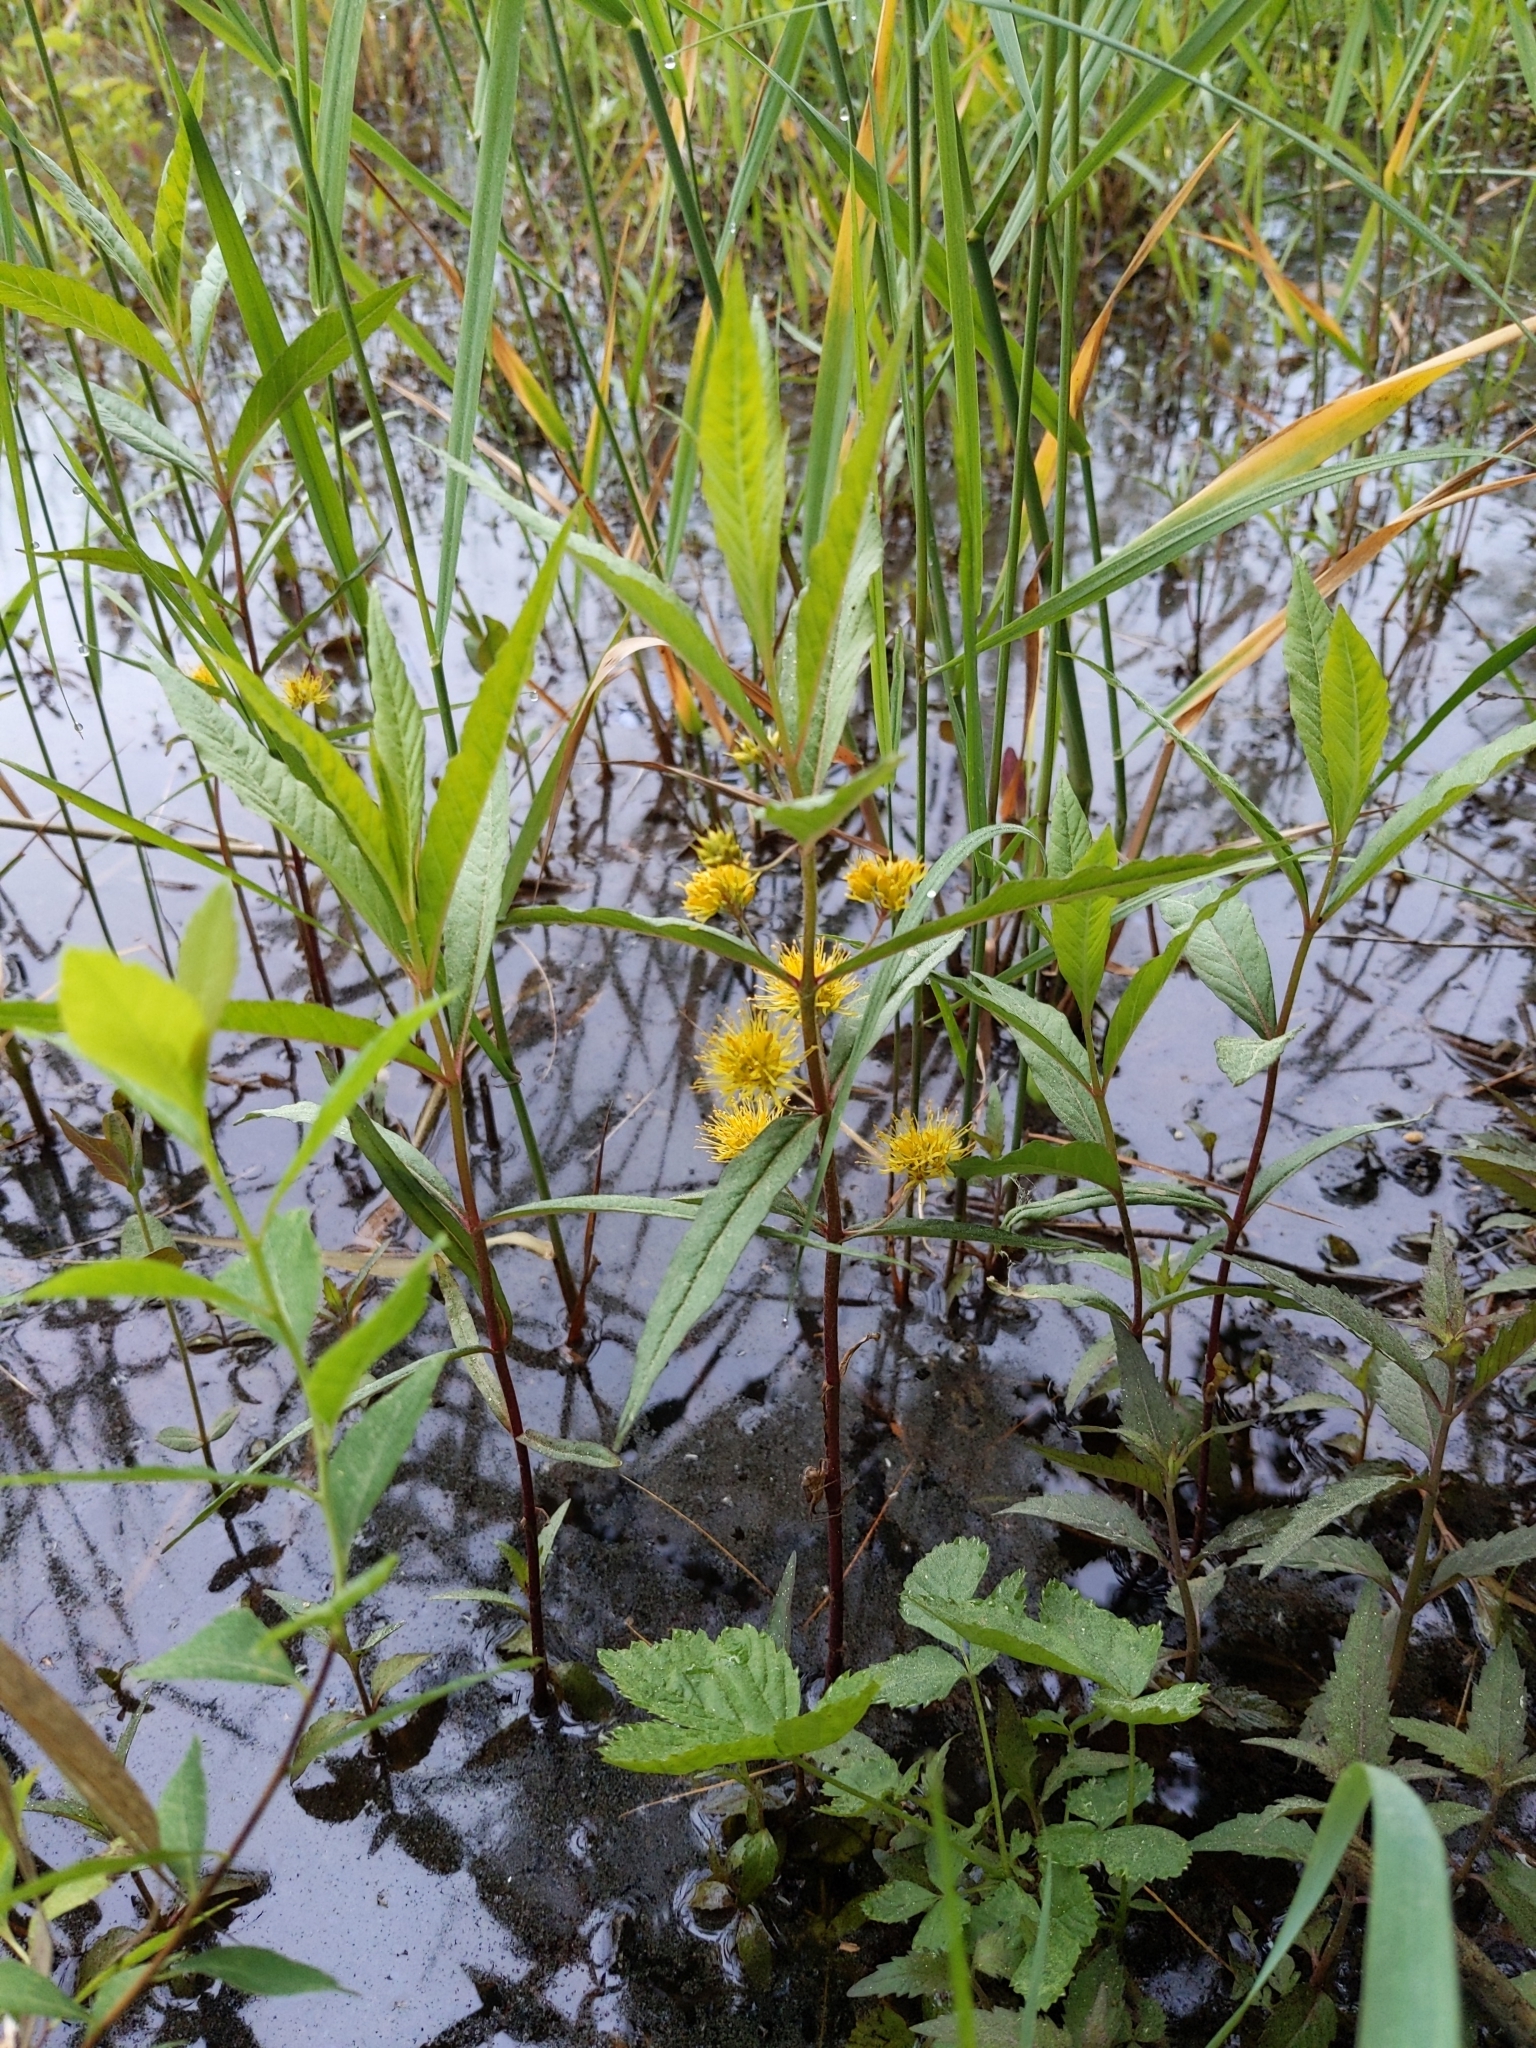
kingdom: Plantae
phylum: Tracheophyta
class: Magnoliopsida
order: Ericales
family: Primulaceae
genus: Lysimachia
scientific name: Lysimachia thyrsiflora
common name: Tufted loosestrife
